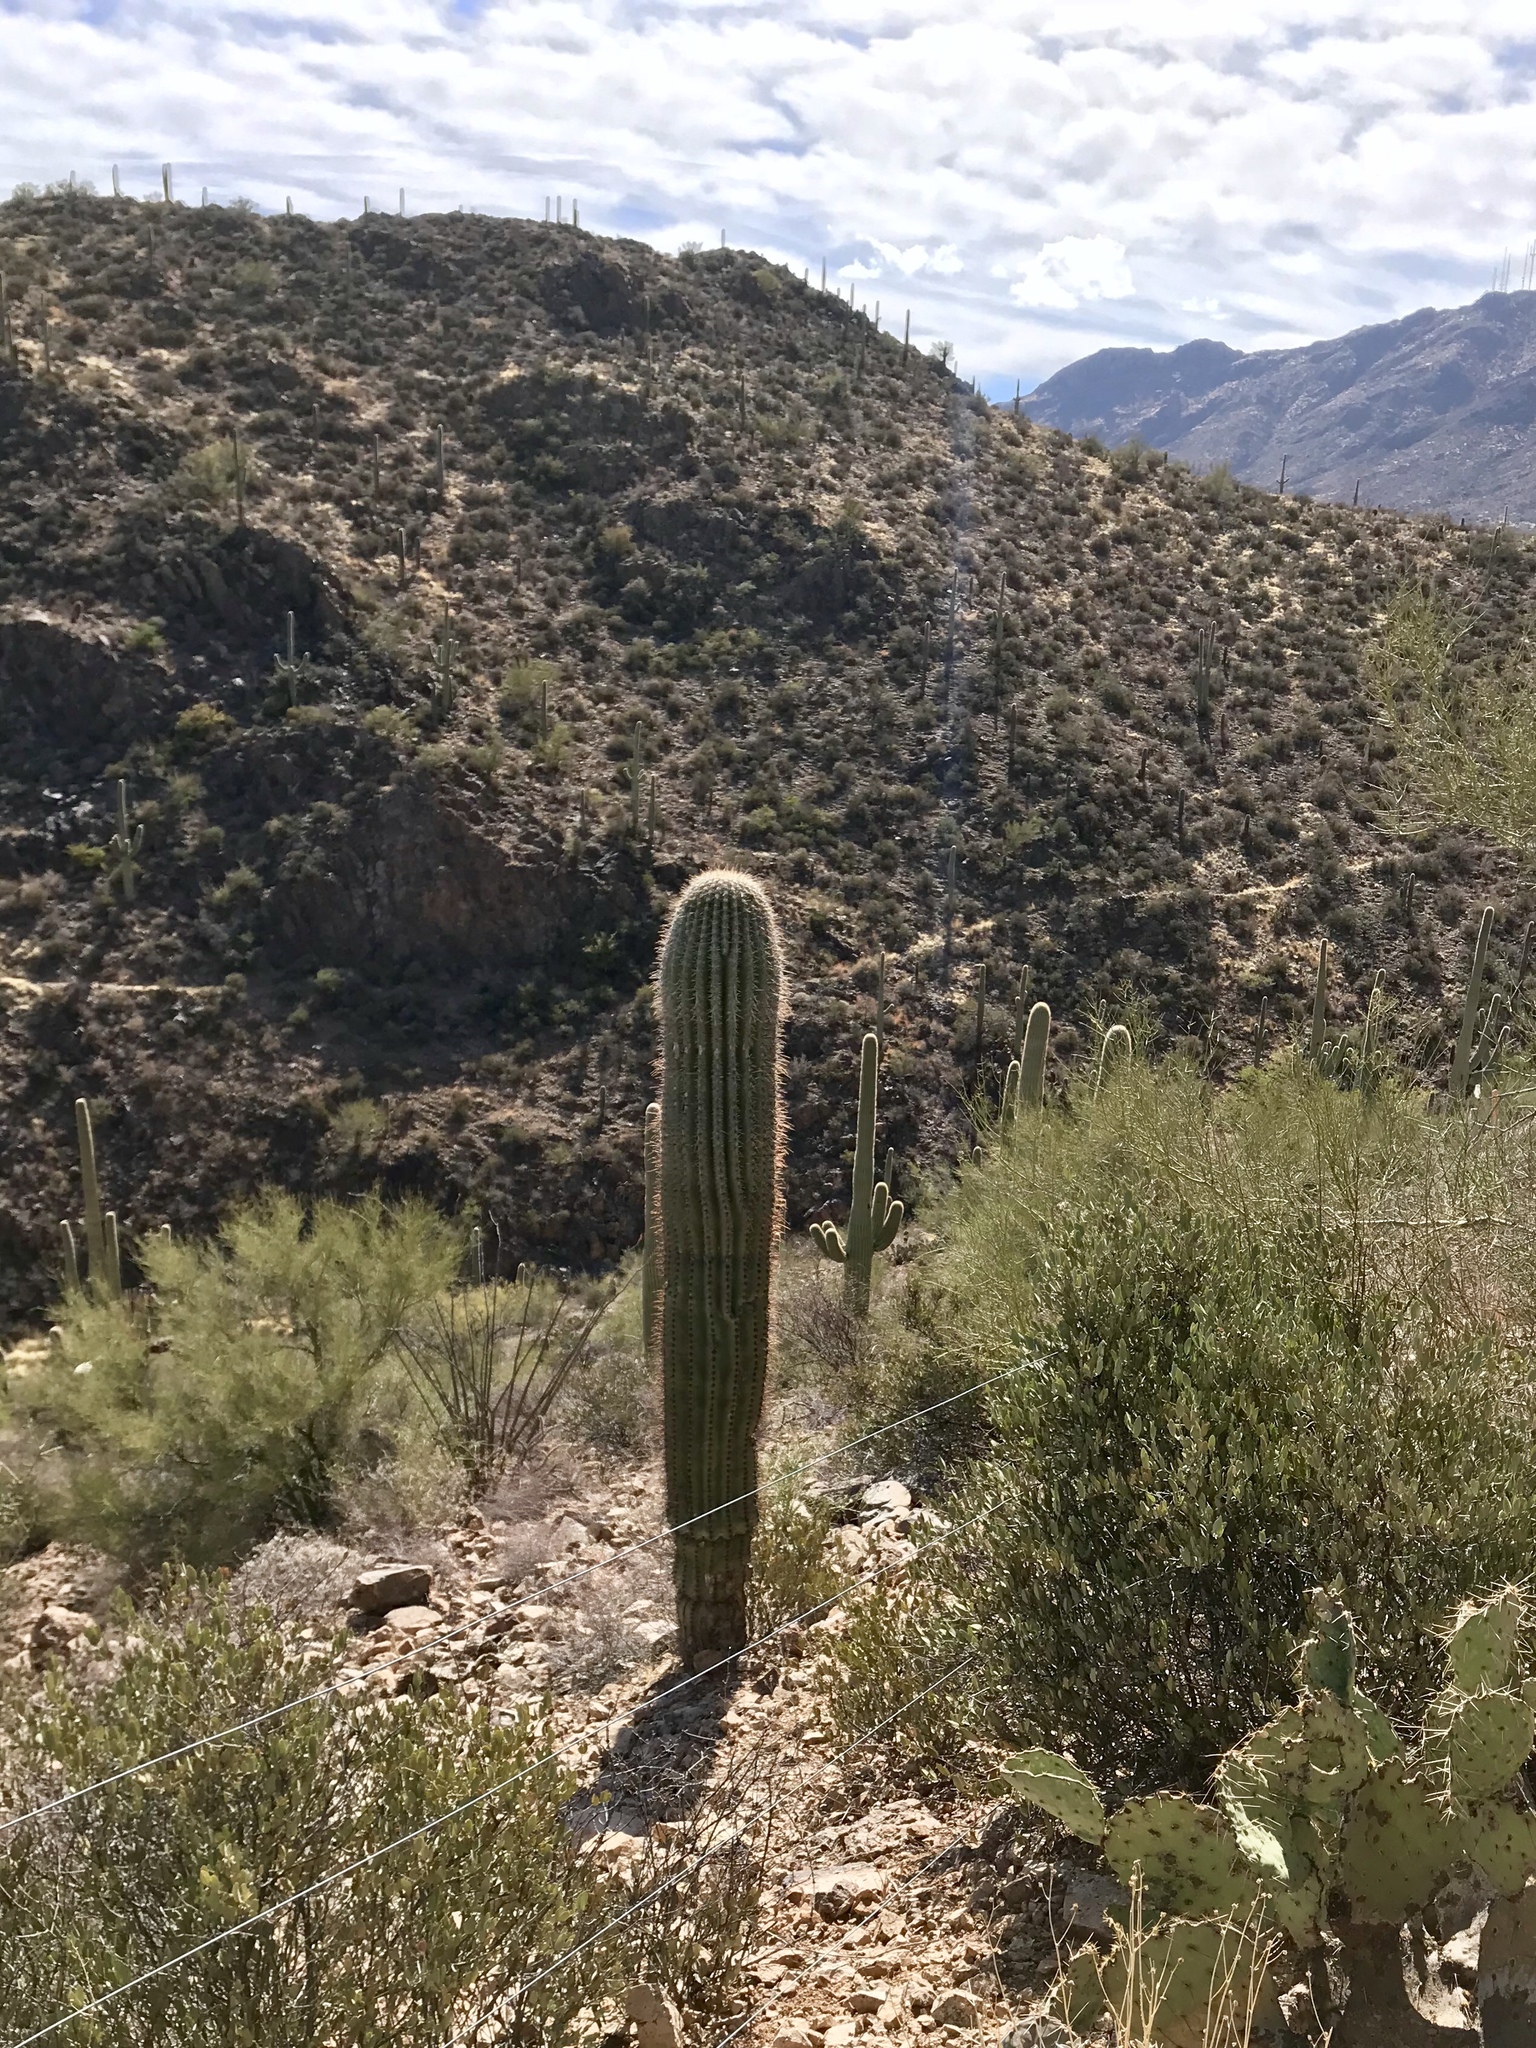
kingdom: Plantae
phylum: Tracheophyta
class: Magnoliopsida
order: Caryophyllales
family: Cactaceae
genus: Carnegiea
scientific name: Carnegiea gigantea
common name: Saguaro
